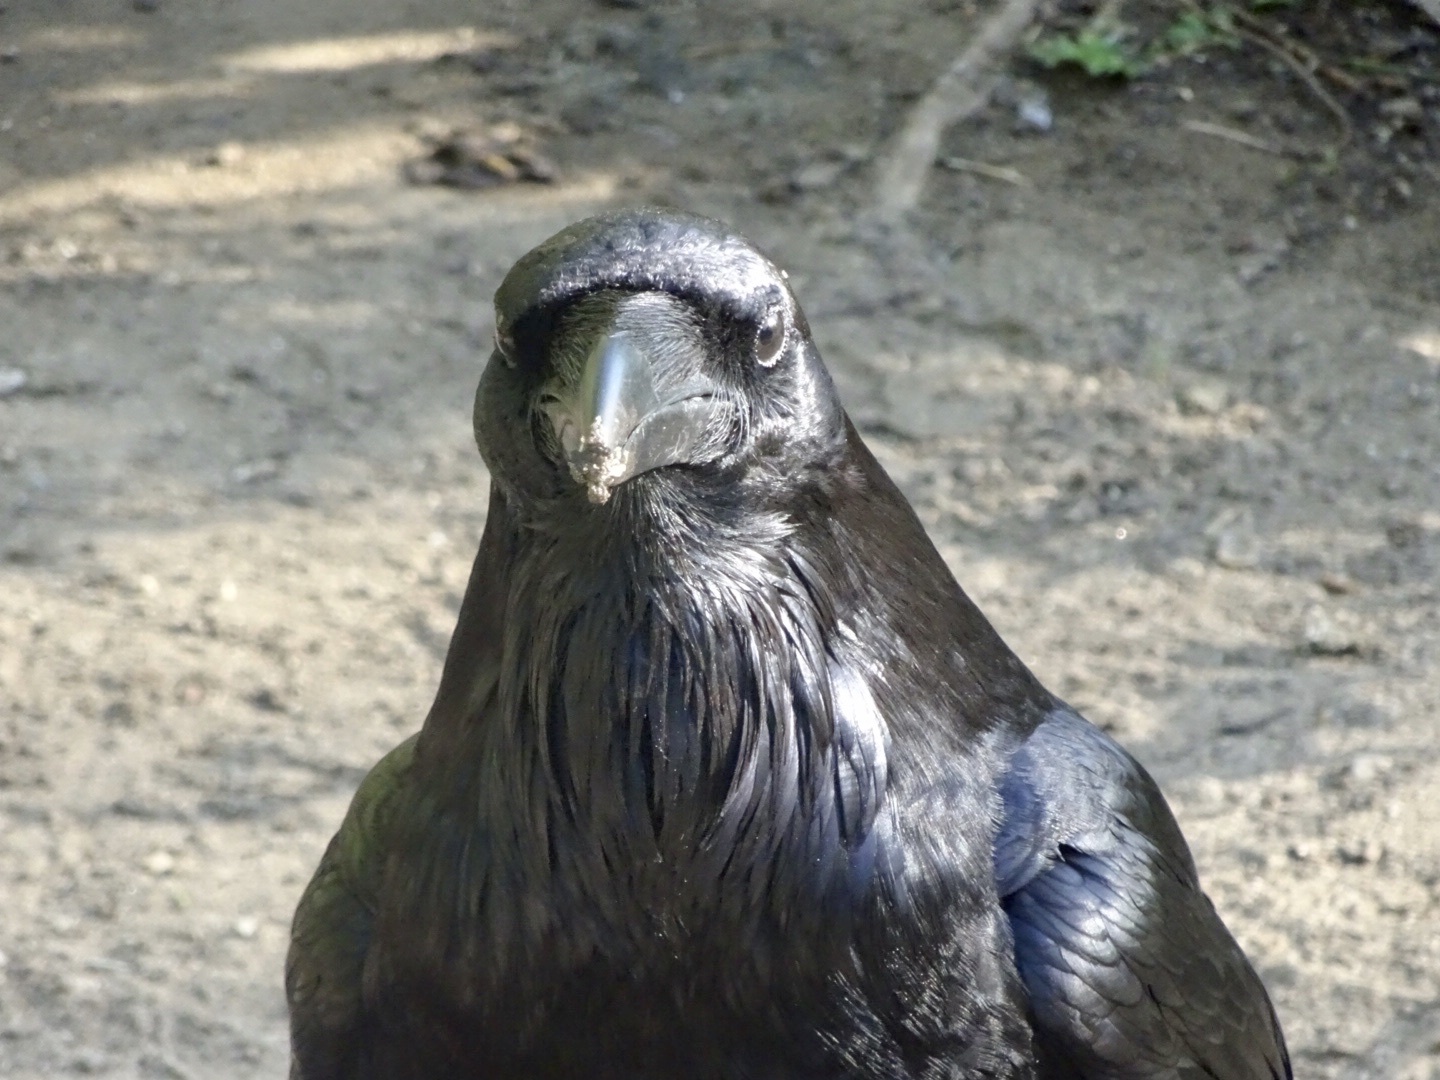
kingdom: Animalia
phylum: Chordata
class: Aves
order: Passeriformes
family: Corvidae
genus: Corvus
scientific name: Corvus corax
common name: Common raven
